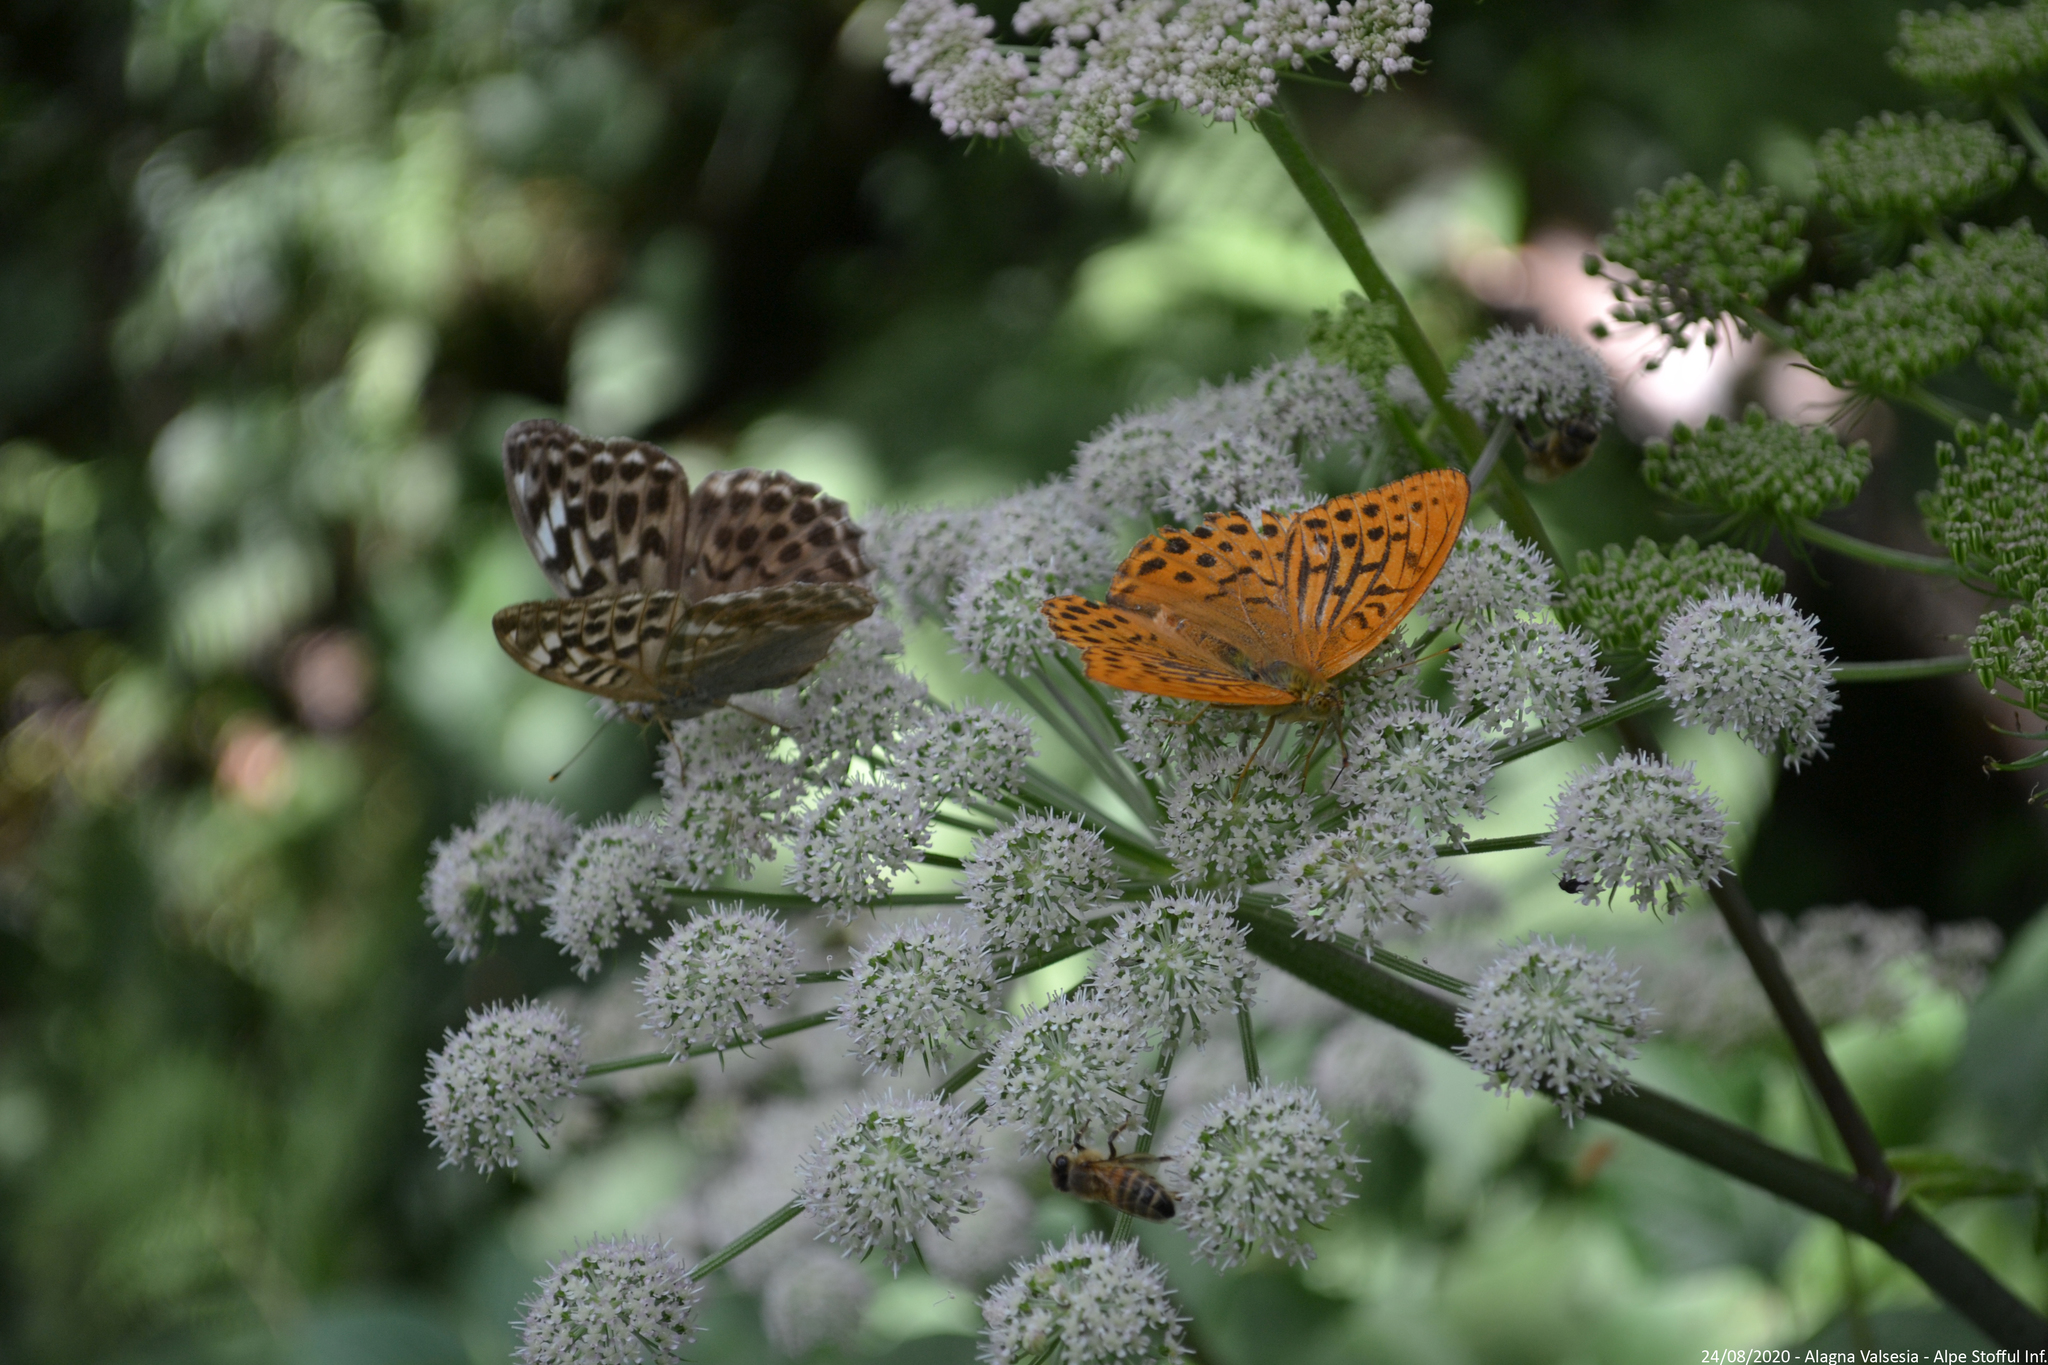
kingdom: Animalia
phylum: Arthropoda
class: Insecta
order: Lepidoptera
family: Nymphalidae
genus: Argynnis
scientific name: Argynnis paphia
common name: Silver-washed fritillary
